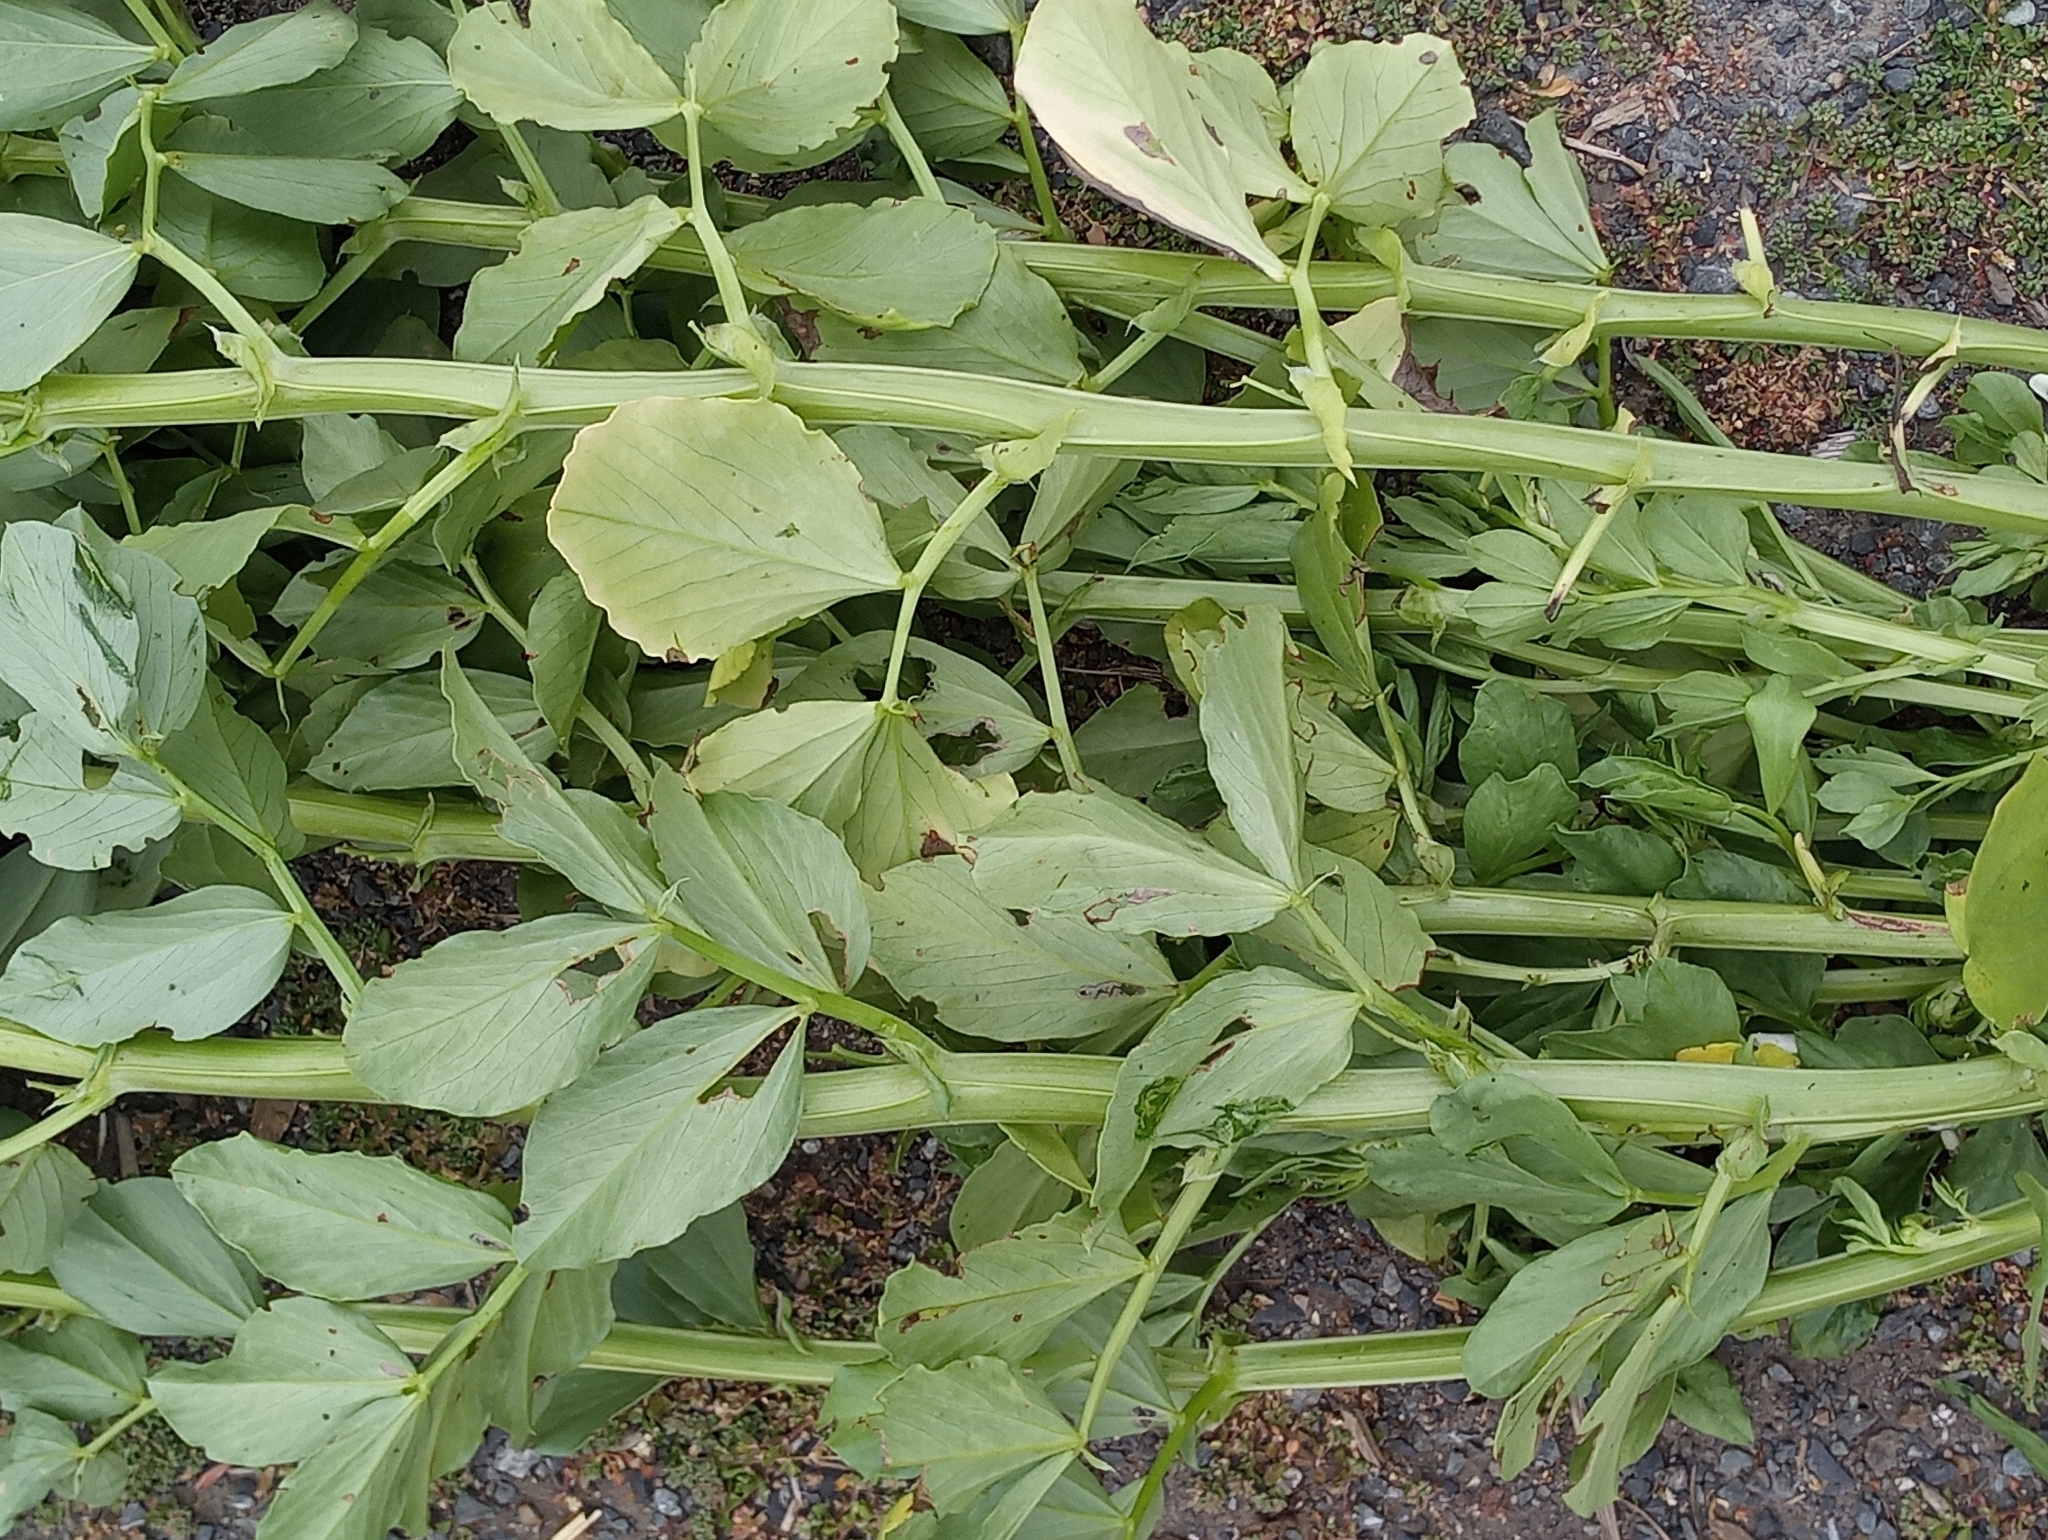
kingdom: Bacteria
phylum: Proteobacteria
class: Alphaproteobacteria
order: Rhizobiales
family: Rhizobiaceae
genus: Rhizobium
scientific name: Rhizobium leguminosarum
